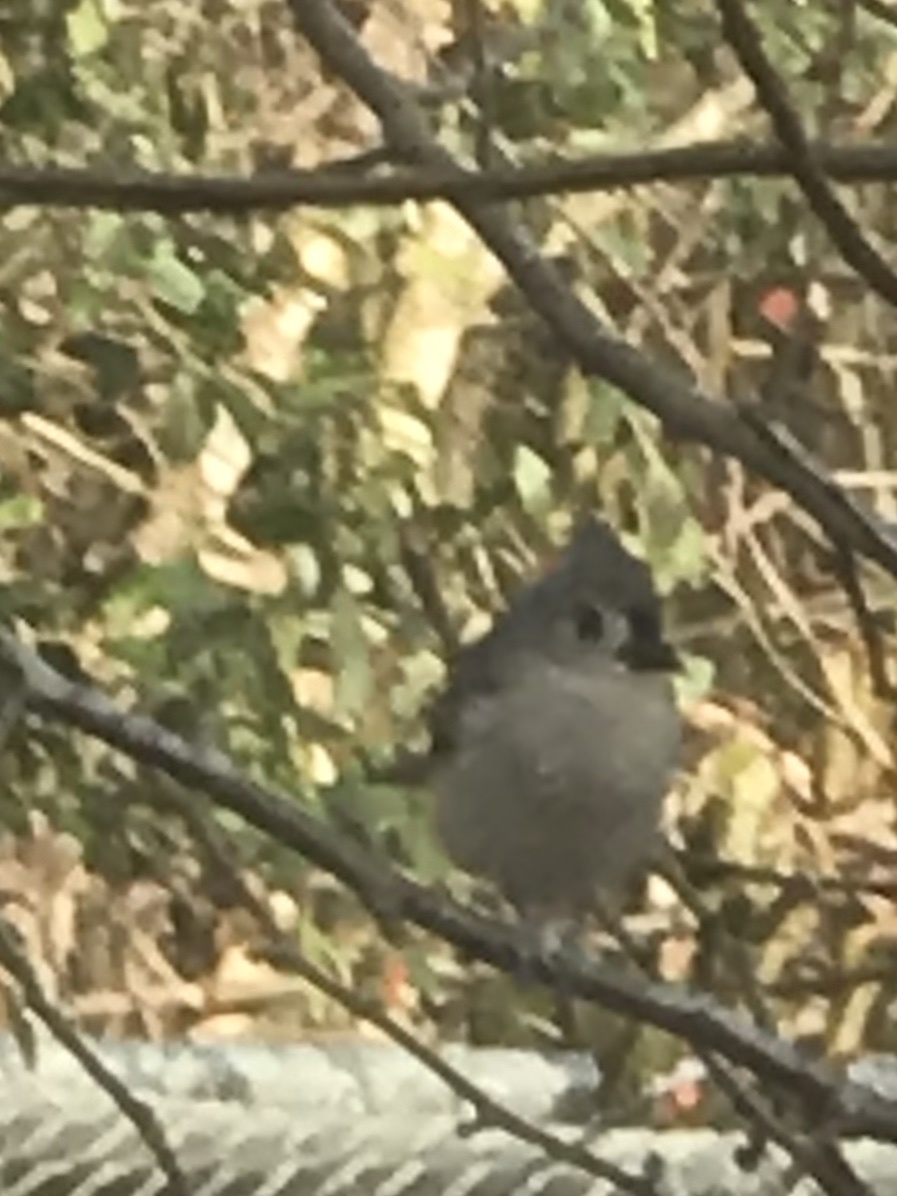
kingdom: Animalia
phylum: Chordata
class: Aves
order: Passeriformes
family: Paridae
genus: Baeolophus
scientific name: Baeolophus bicolor
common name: Tufted titmouse
